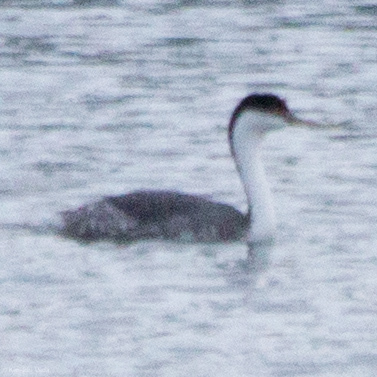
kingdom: Animalia
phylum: Chordata
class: Aves
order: Podicipediformes
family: Podicipedidae
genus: Aechmophorus
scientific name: Aechmophorus occidentalis
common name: Western grebe
